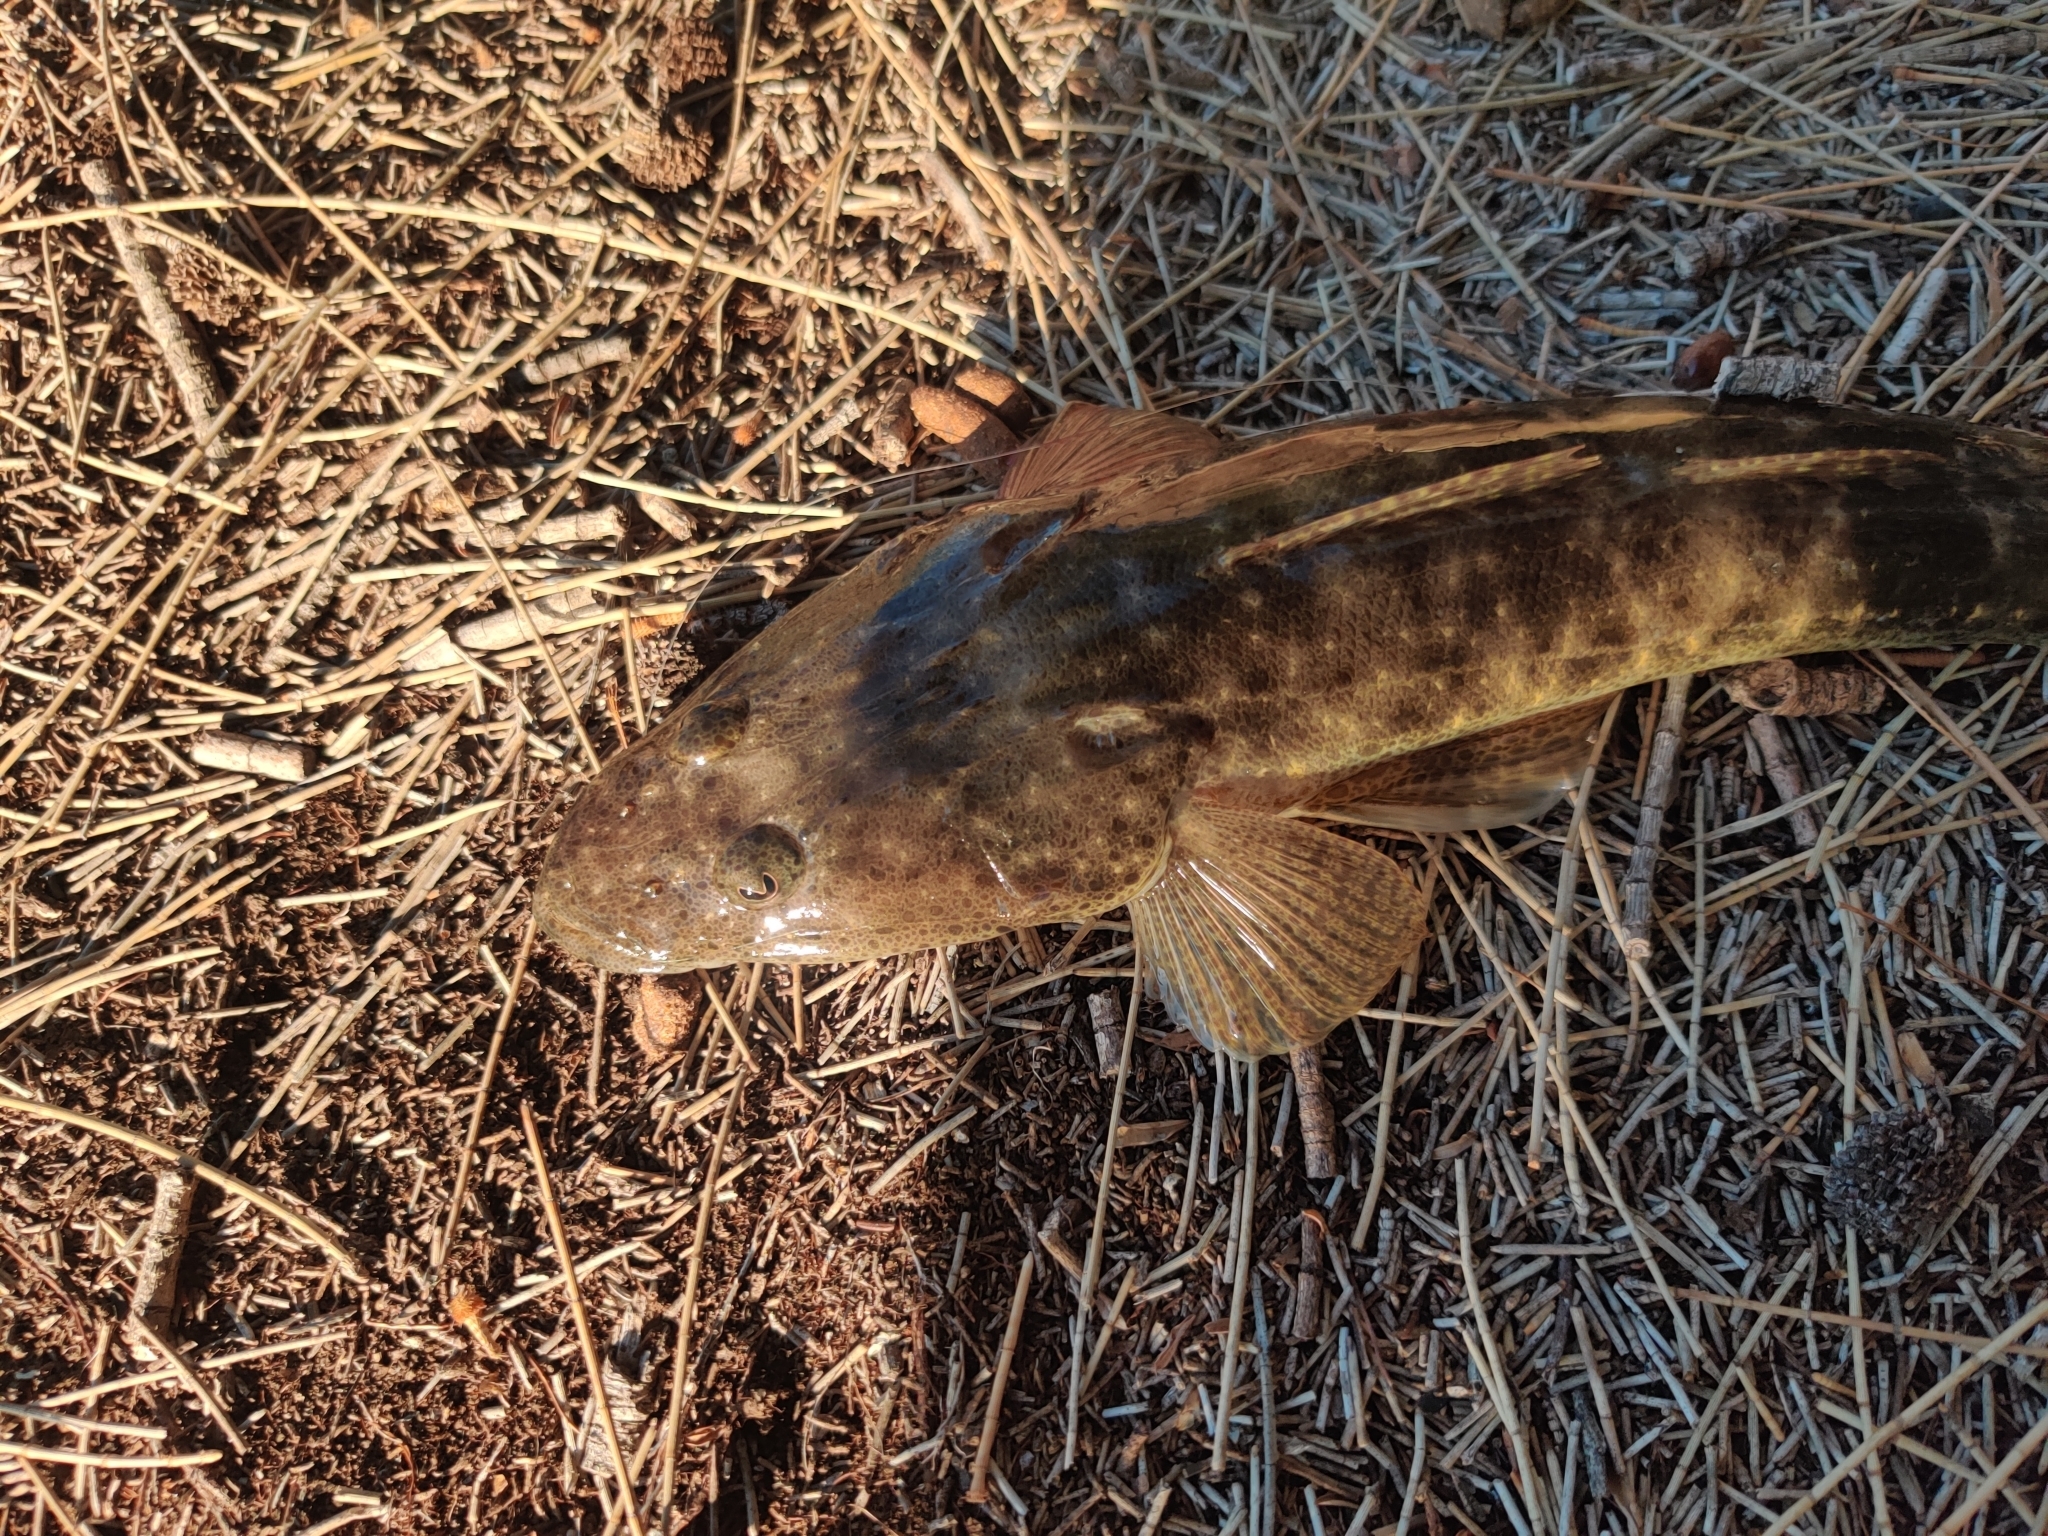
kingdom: Animalia
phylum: Chordata
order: Scorpaeniformes
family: Platycephalidae
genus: Platycephalus
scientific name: Platycephalus fuscus
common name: Dusky flathead
